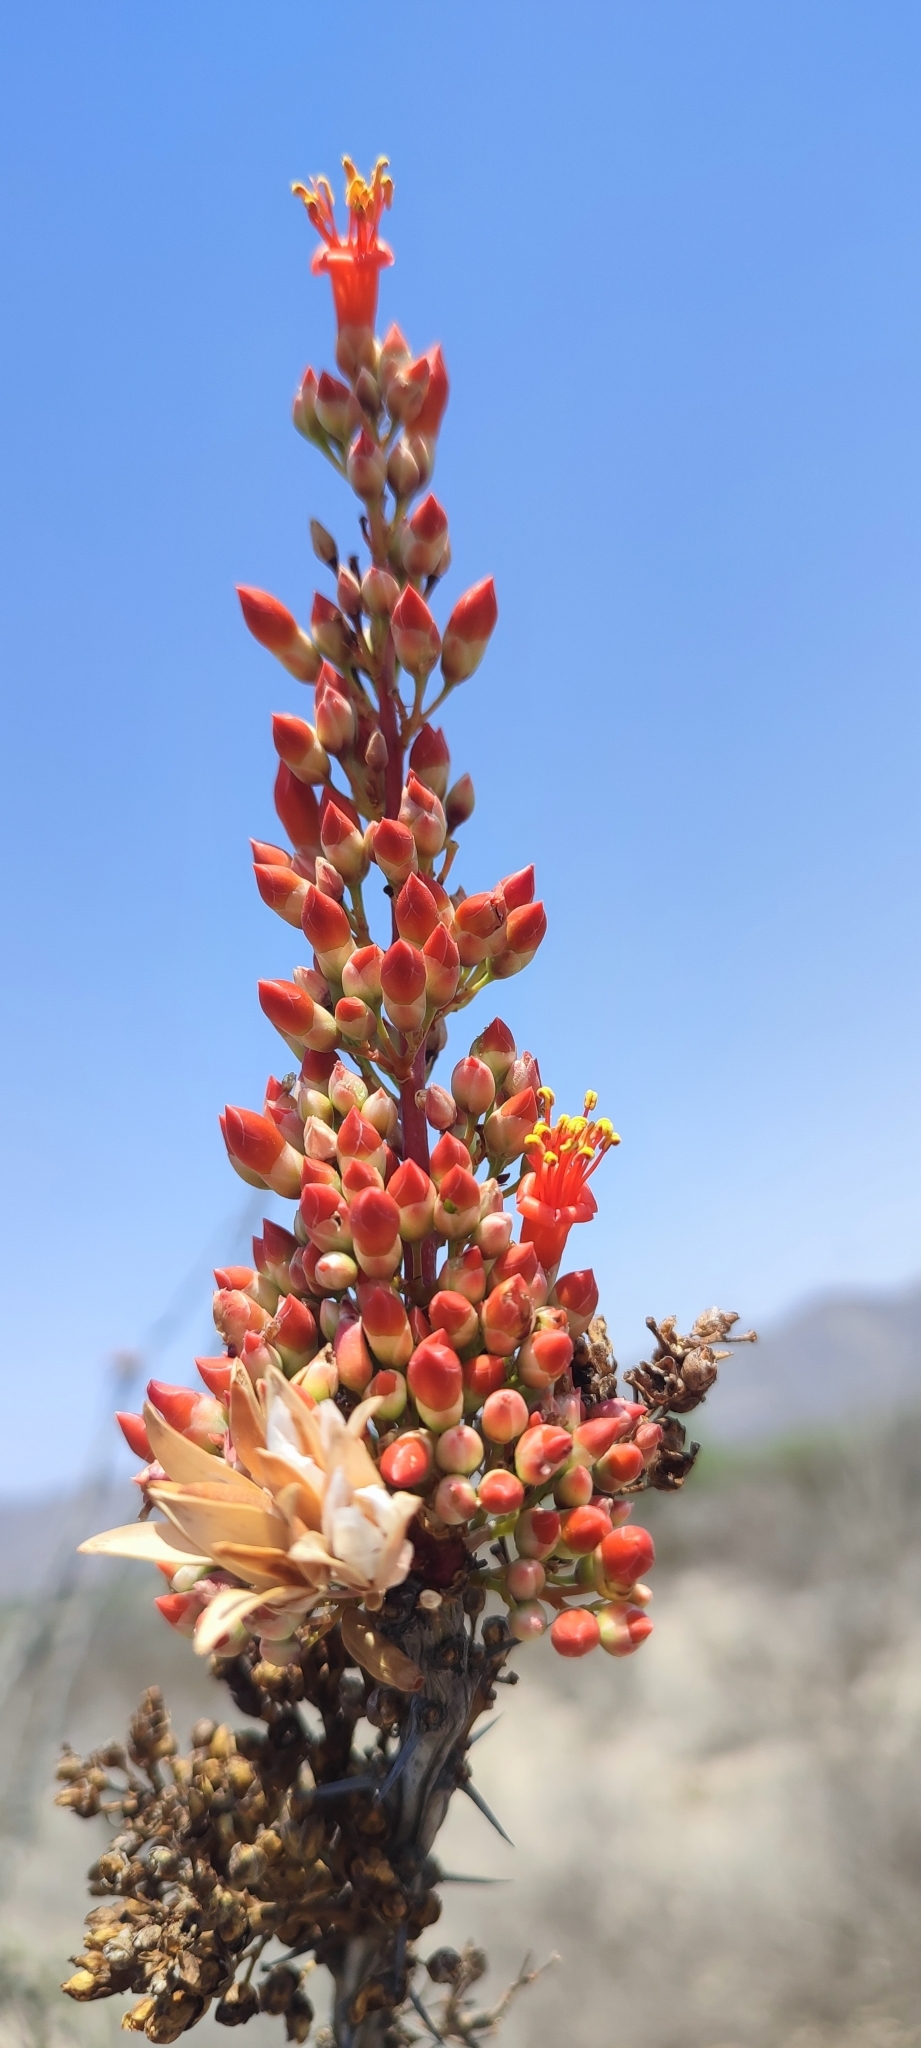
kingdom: Plantae
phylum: Tracheophyta
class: Magnoliopsida
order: Ericales
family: Fouquieriaceae
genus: Fouquieria
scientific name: Fouquieria splendens
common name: Vine-cactus
